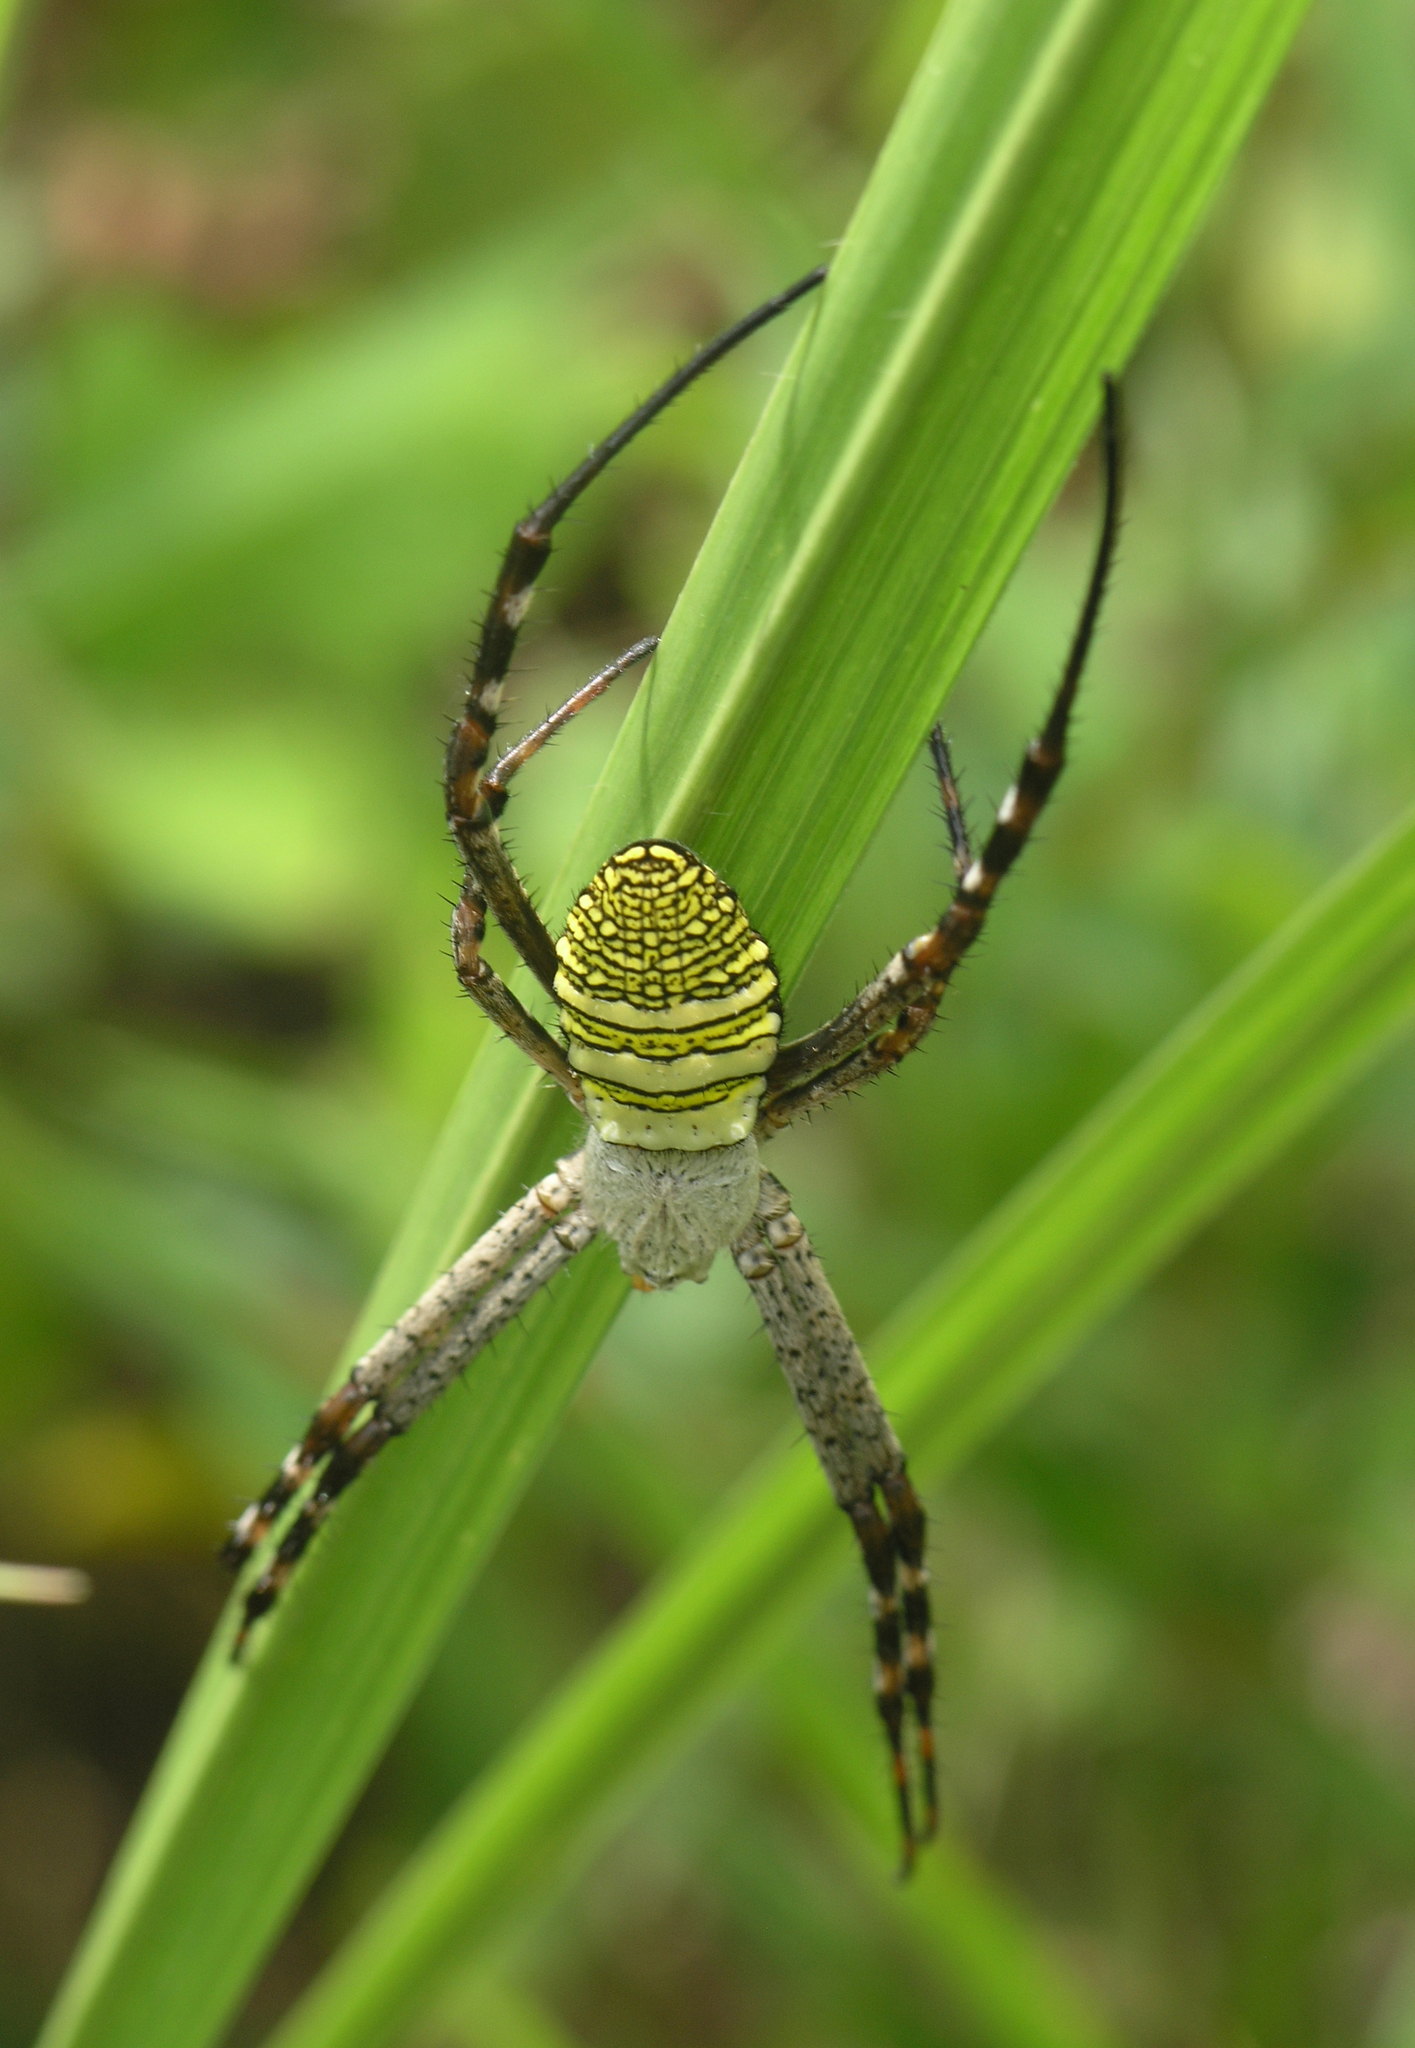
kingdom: Animalia
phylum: Arthropoda
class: Arachnida
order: Araneae
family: Araneidae
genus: Argiope
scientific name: Argiope aemula
